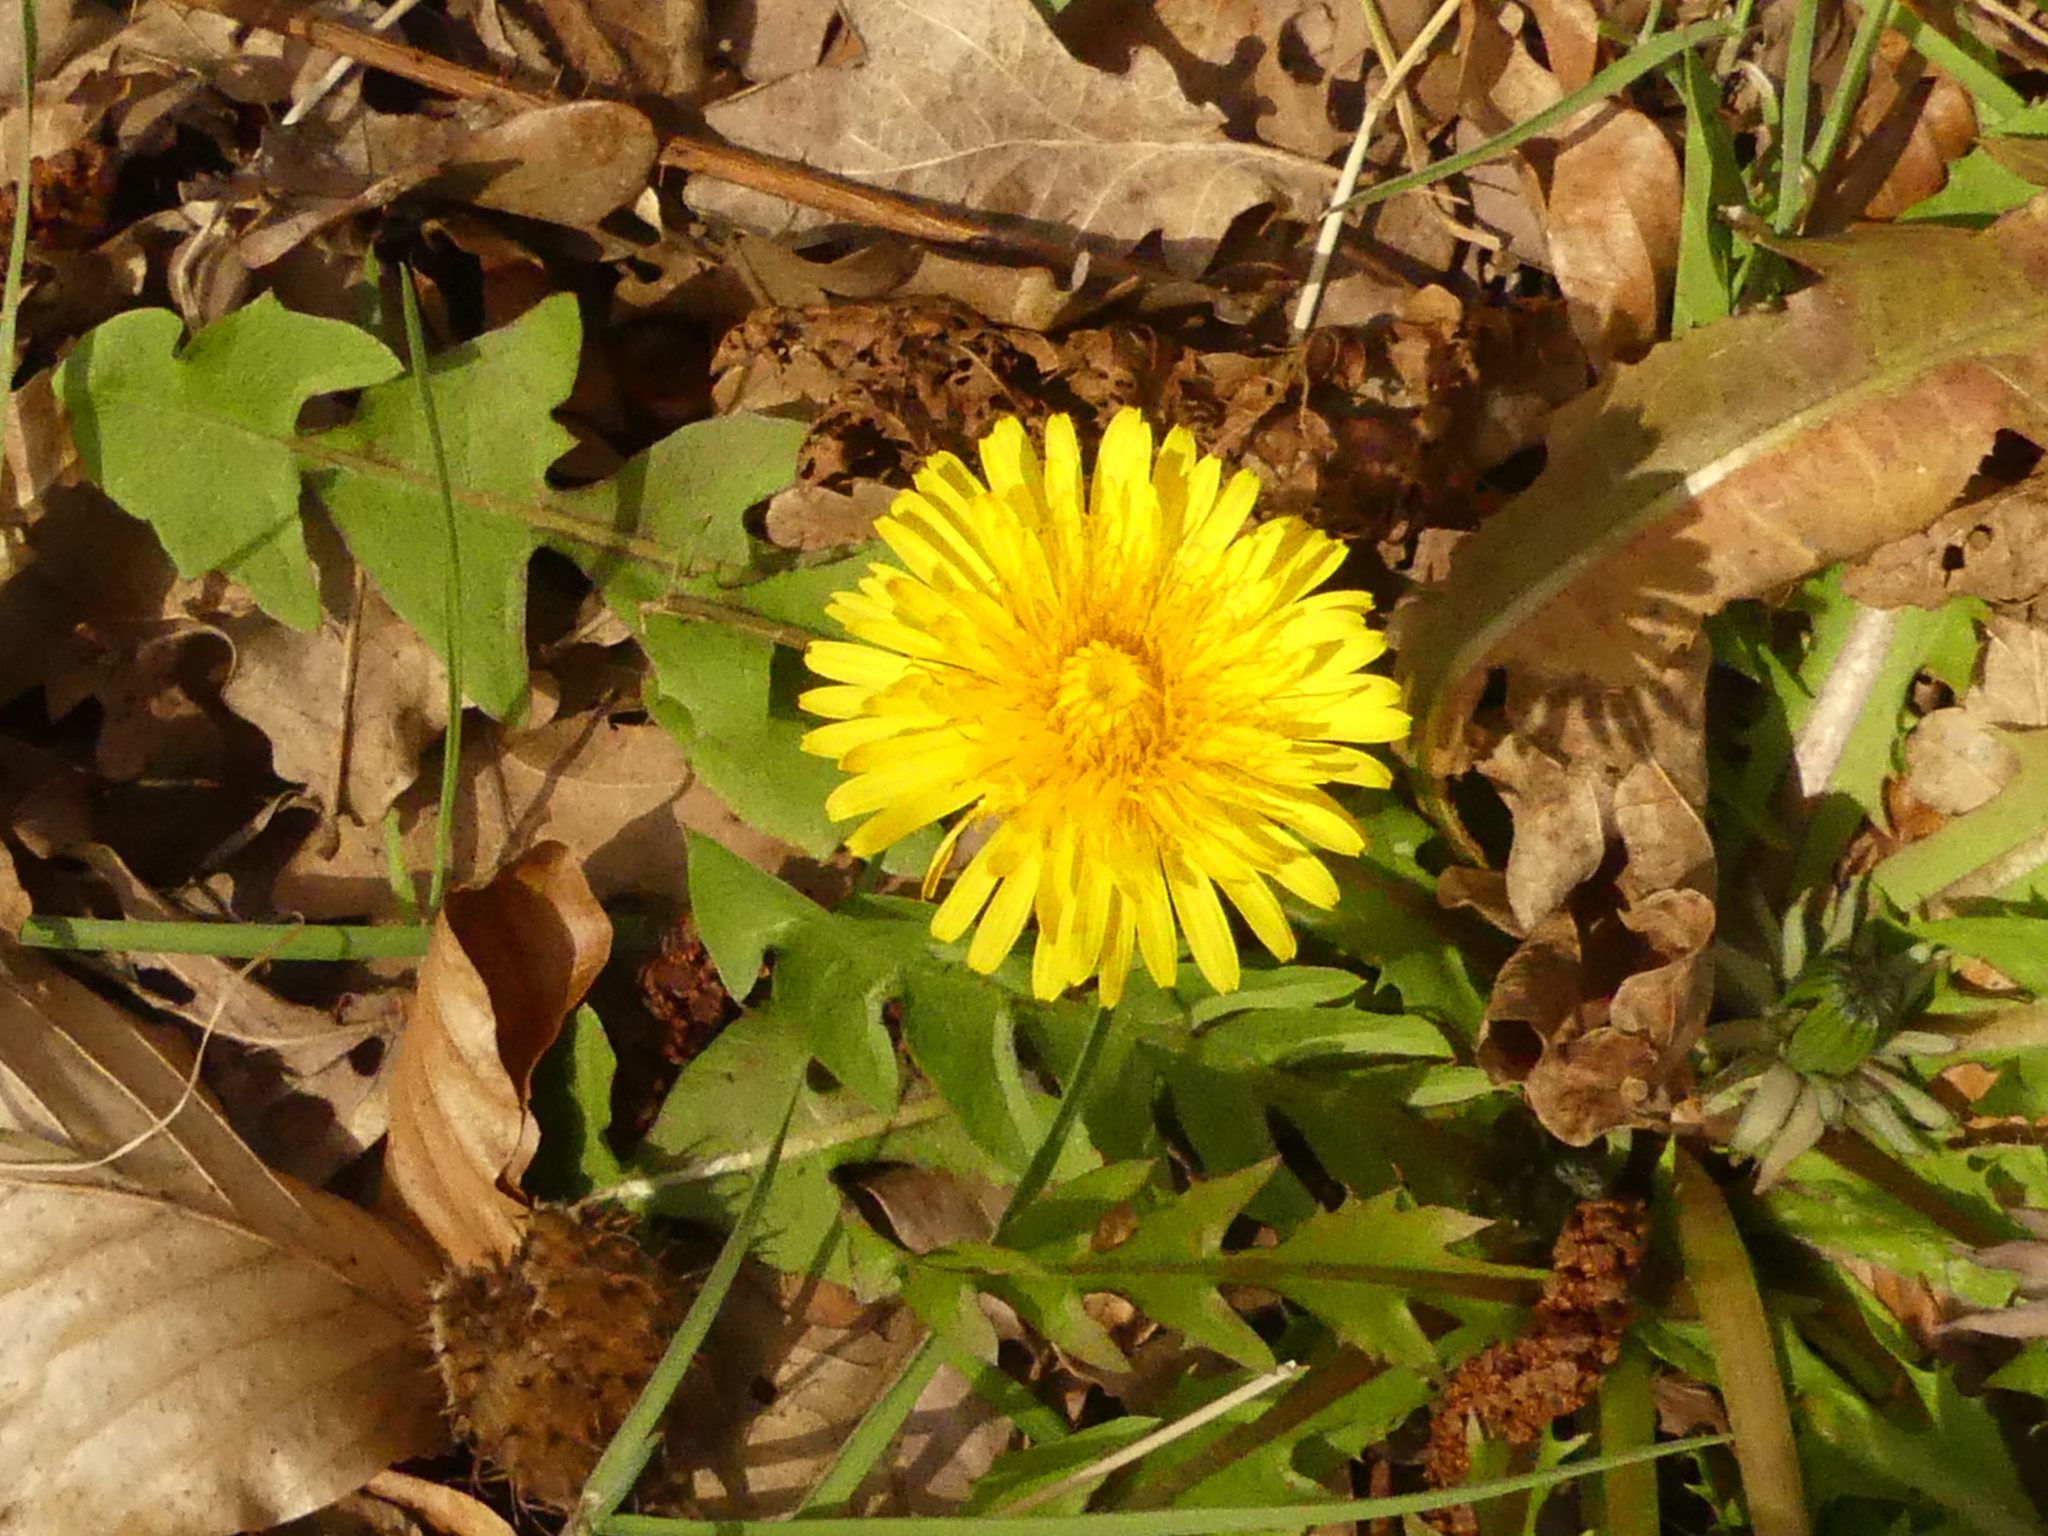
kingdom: Plantae
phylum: Tracheophyta
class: Magnoliopsida
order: Asterales
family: Asteraceae
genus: Taraxacum
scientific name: Taraxacum officinale
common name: Common dandelion
